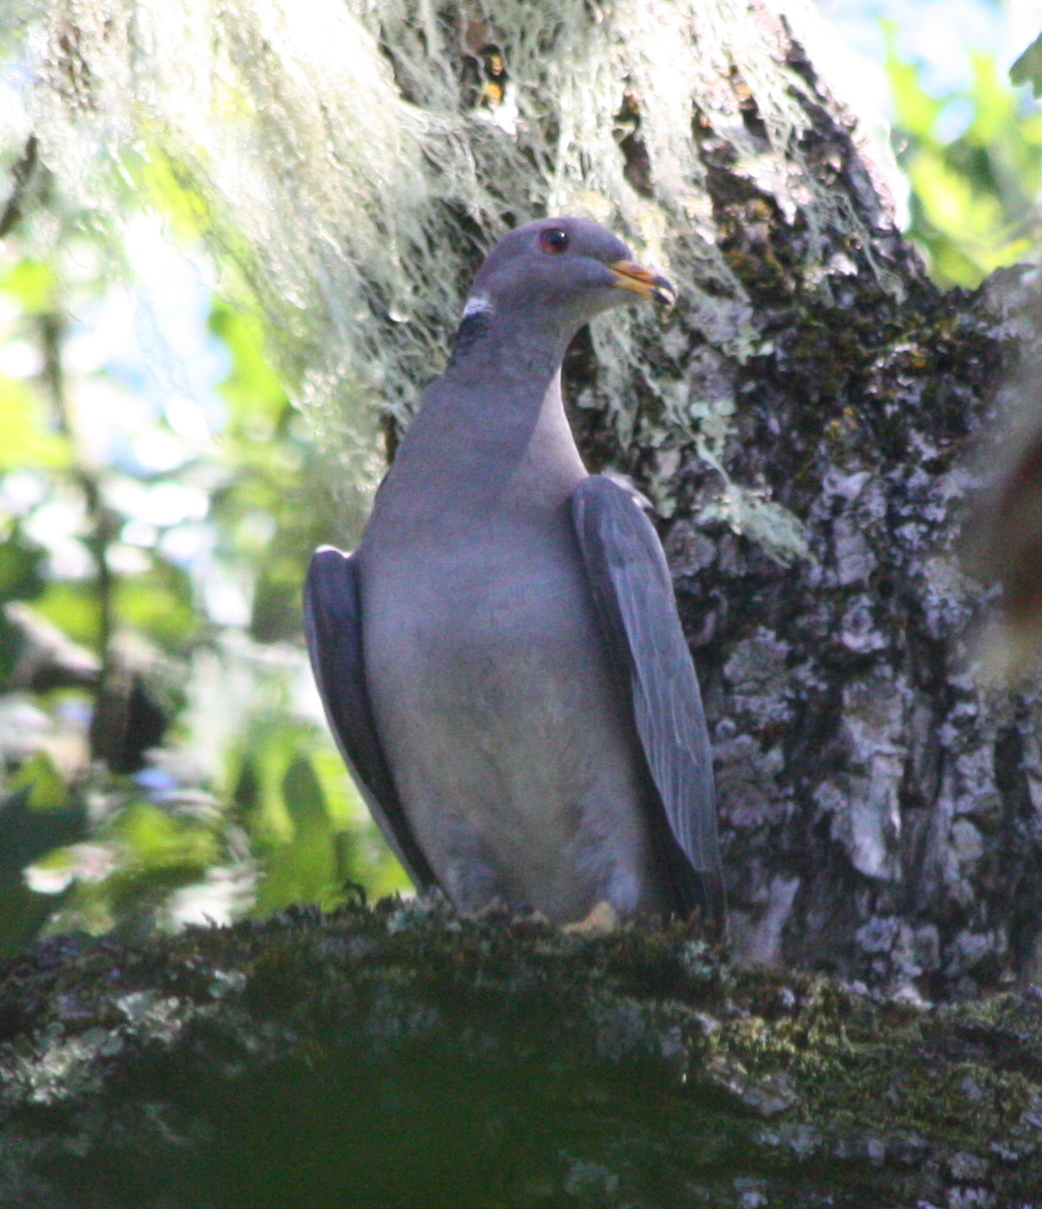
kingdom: Animalia
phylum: Chordata
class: Aves
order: Columbiformes
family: Columbidae
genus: Patagioenas
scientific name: Patagioenas fasciata
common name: Band-tailed pigeon
